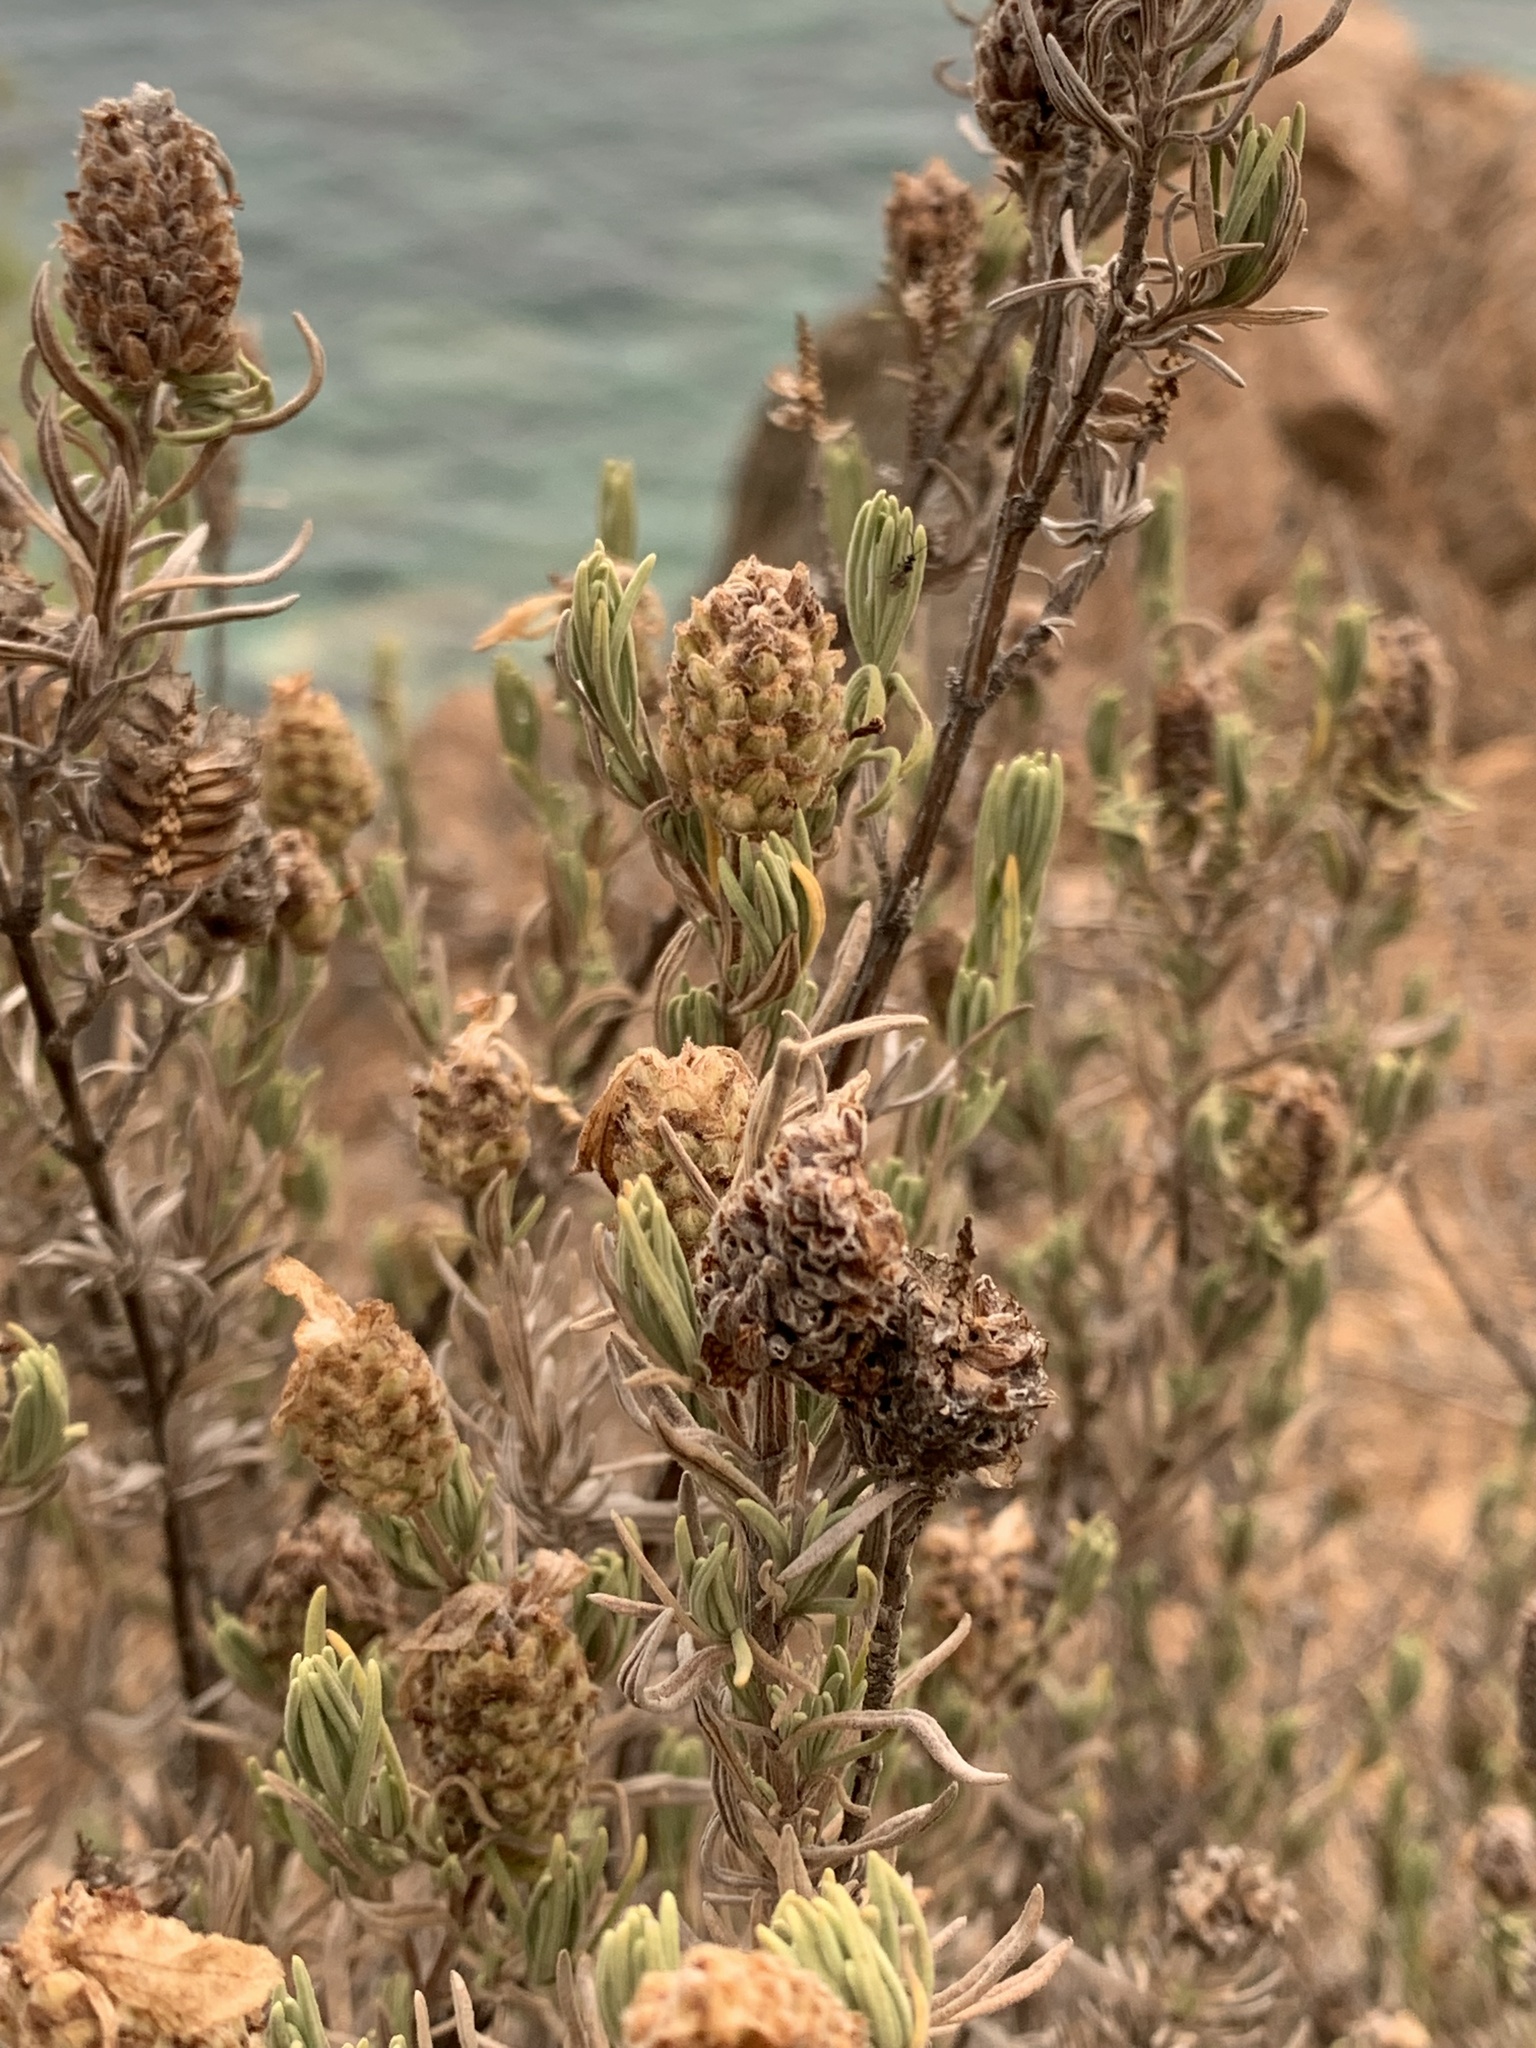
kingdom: Plantae
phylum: Tracheophyta
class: Magnoliopsida
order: Lamiales
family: Lamiaceae
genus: Lavandula
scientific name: Lavandula stoechas
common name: French lavender
